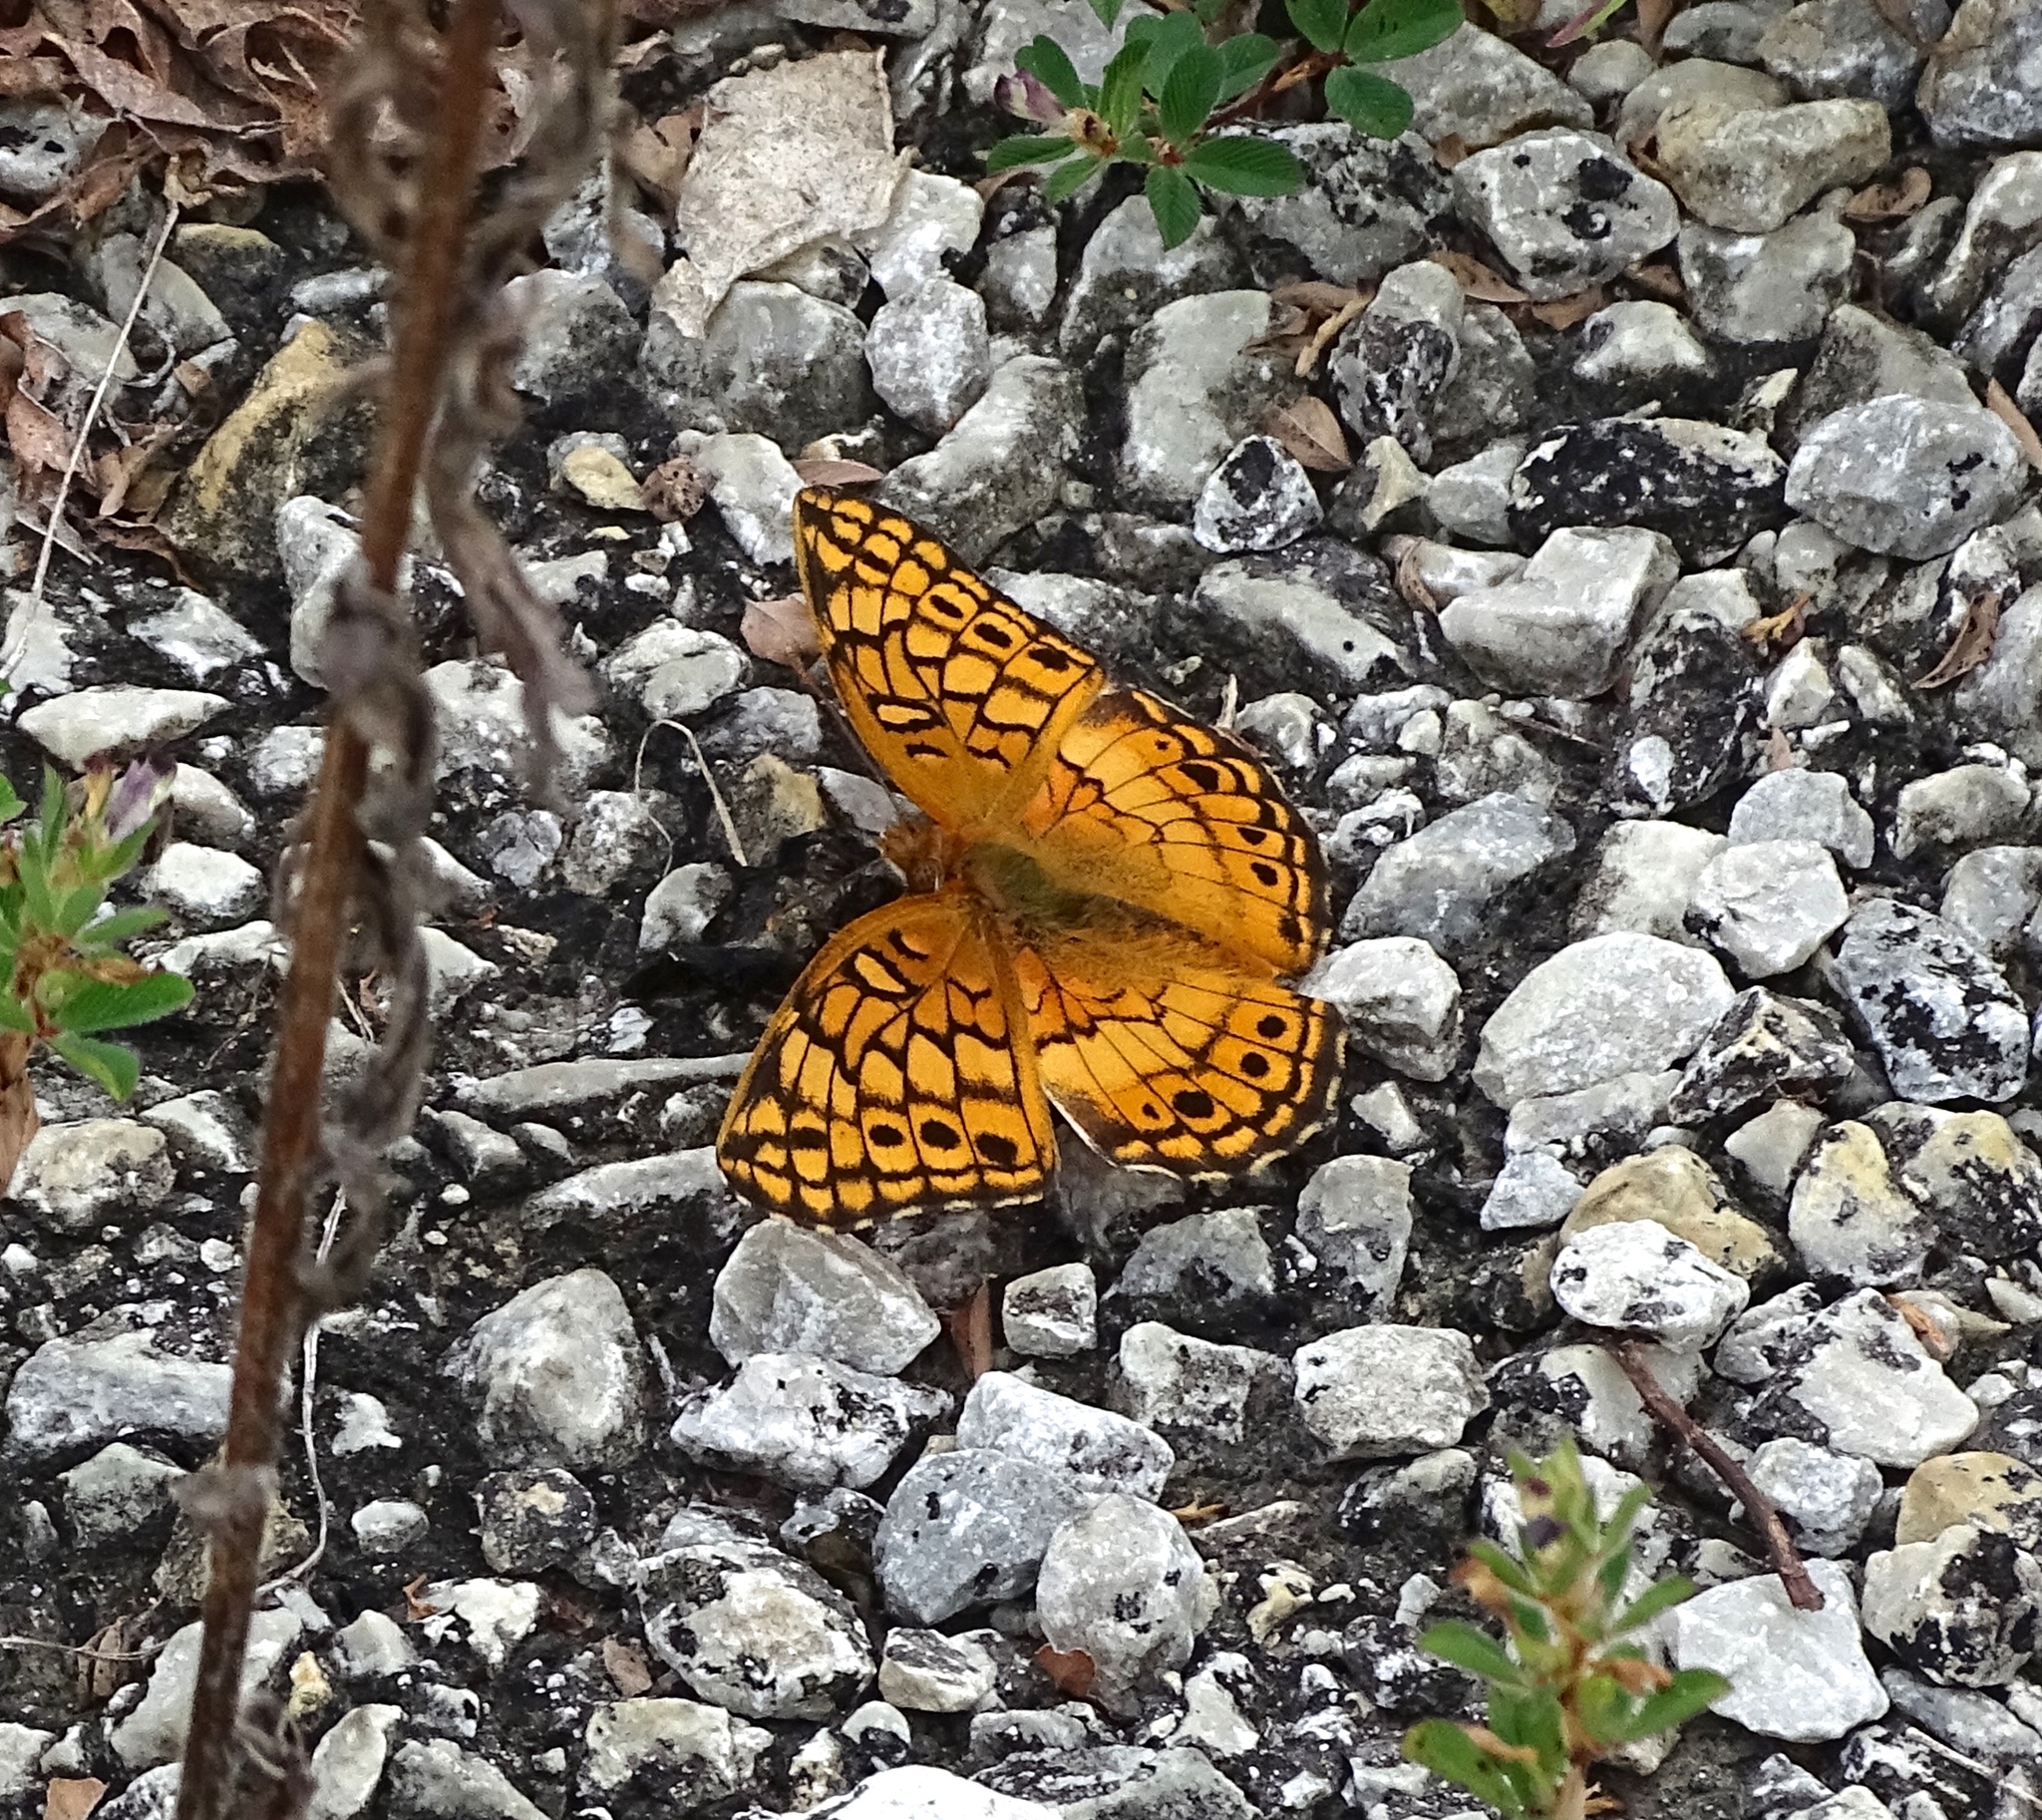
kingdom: Animalia
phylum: Arthropoda
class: Insecta
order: Lepidoptera
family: Nymphalidae
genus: Euptoieta
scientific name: Euptoieta claudia
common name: Variegated fritillary
